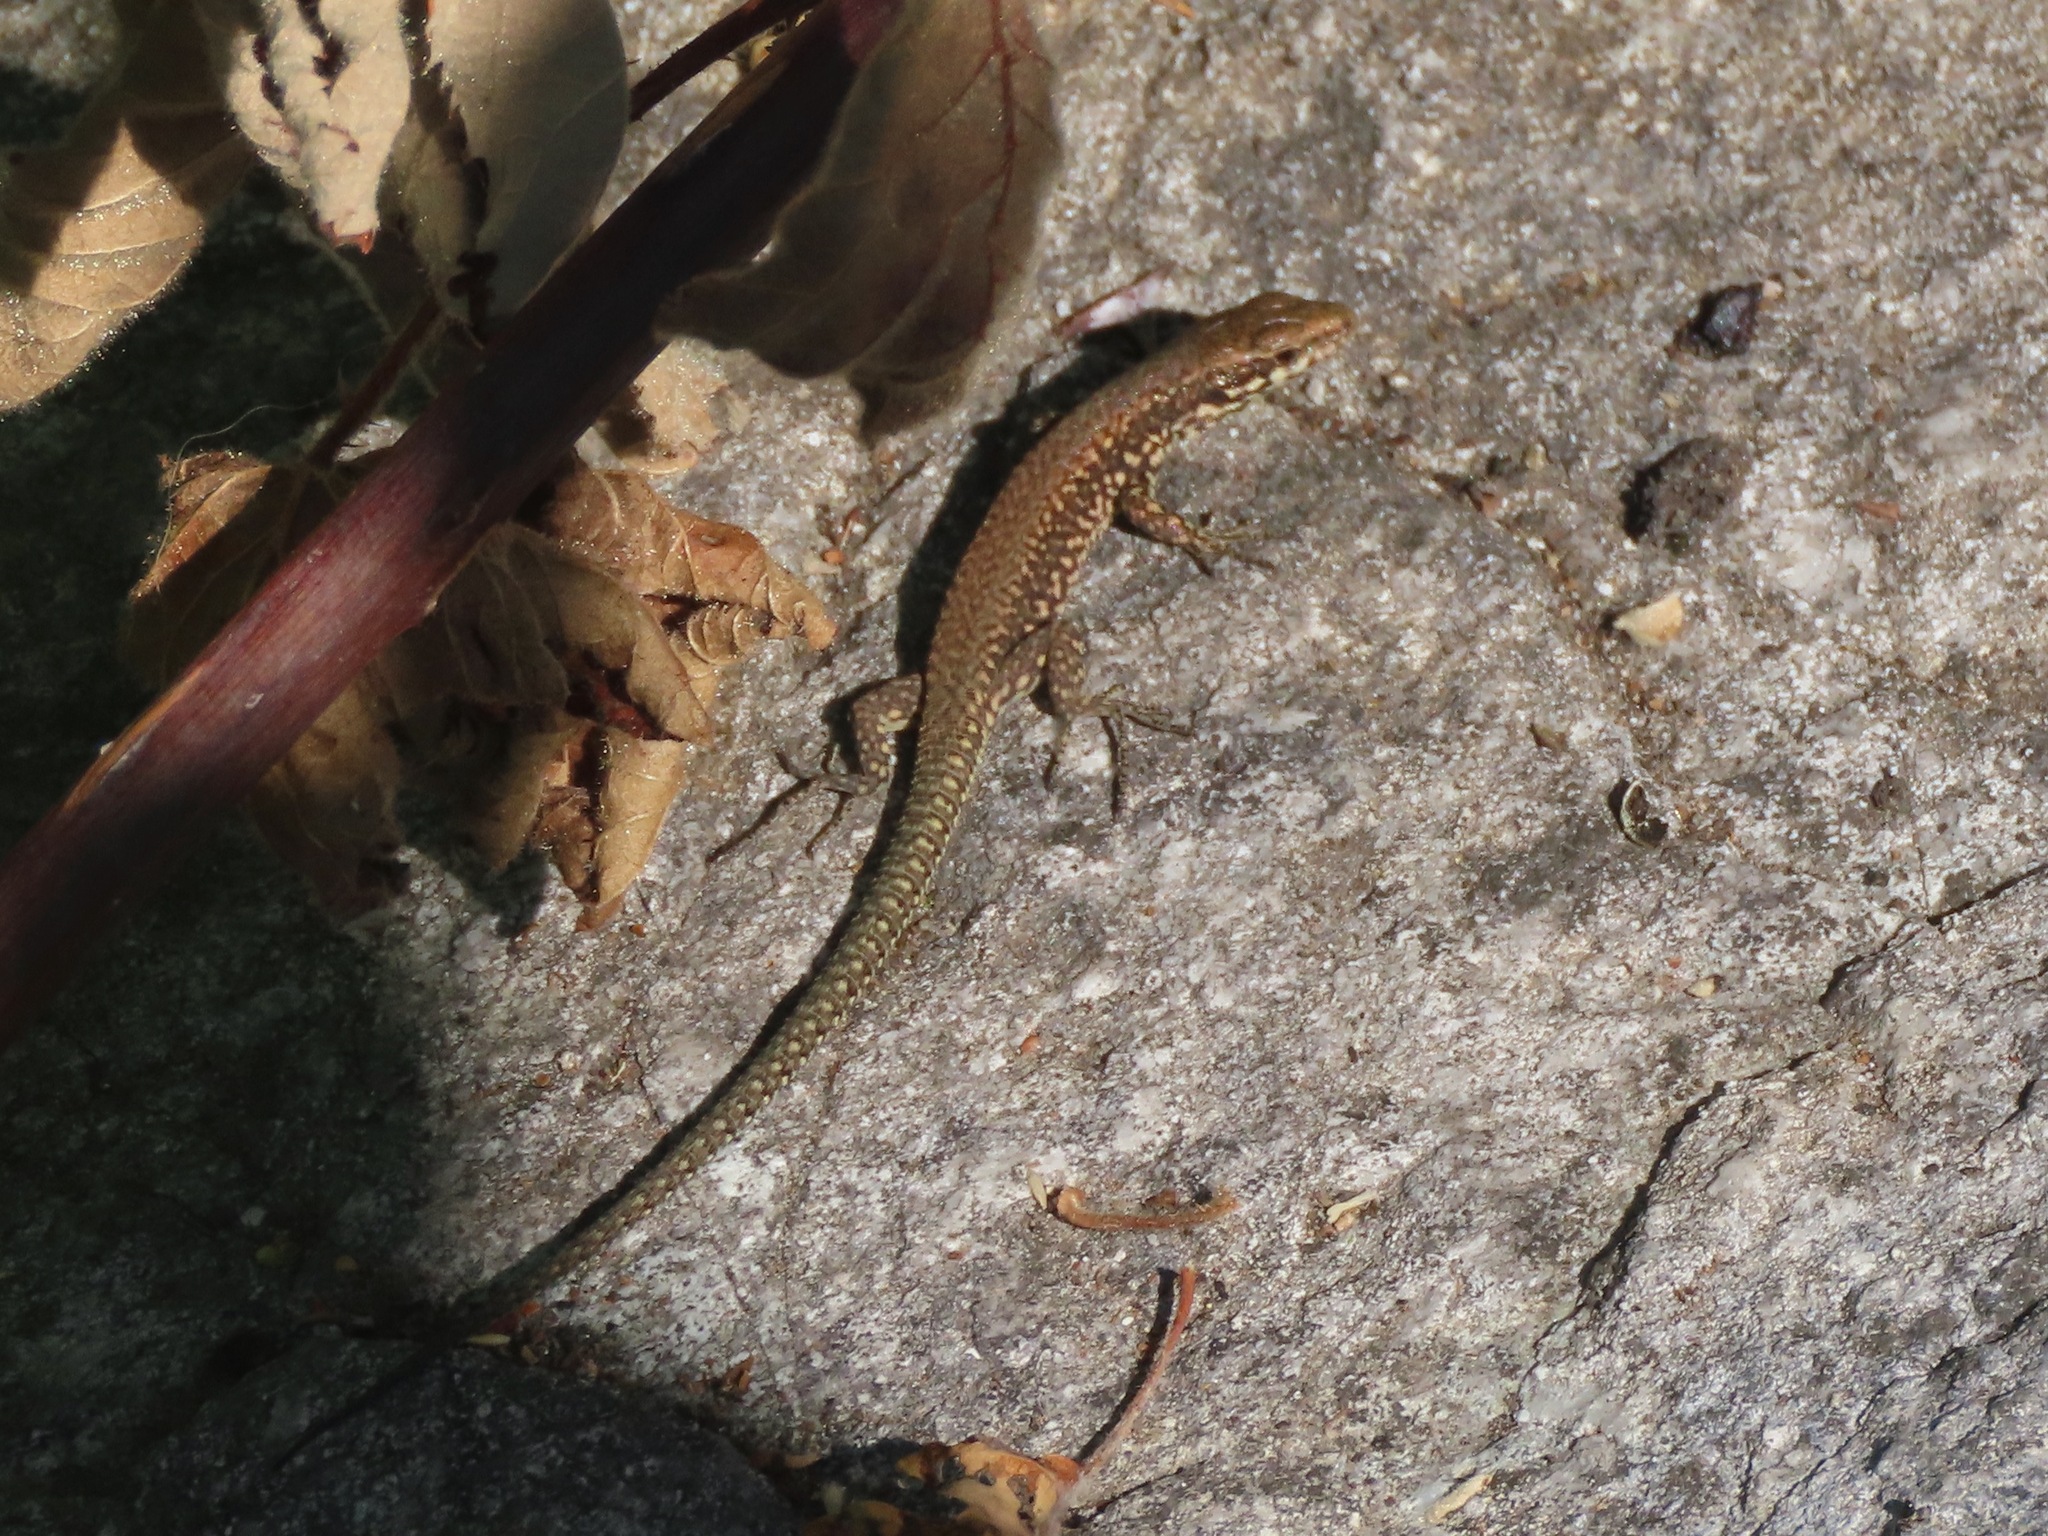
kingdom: Animalia
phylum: Chordata
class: Squamata
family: Lacertidae
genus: Podarcis
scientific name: Podarcis muralis
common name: Common wall lizard
